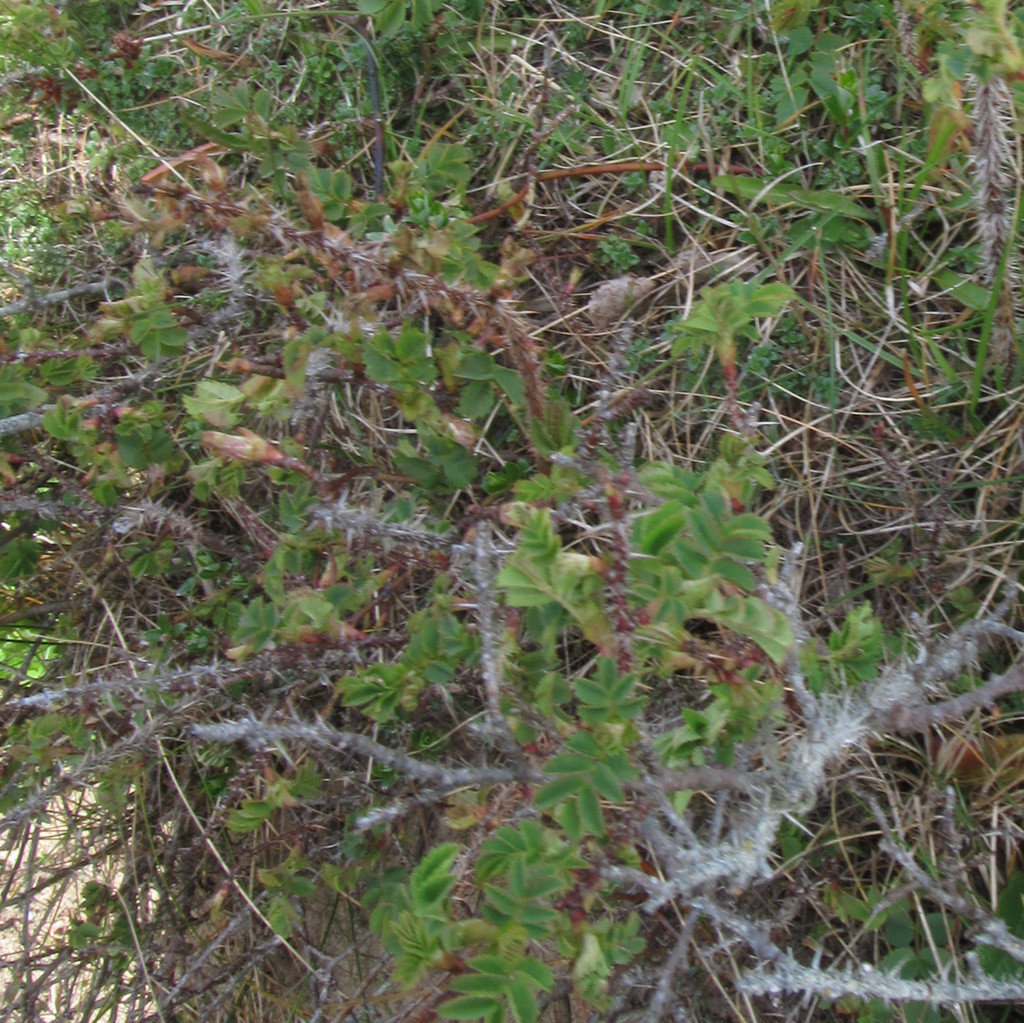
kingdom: Plantae
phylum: Tracheophyta
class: Magnoliopsida
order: Rosales
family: Rosaceae
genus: Rosa
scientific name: Rosa spinosissima
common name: Burnet rose
